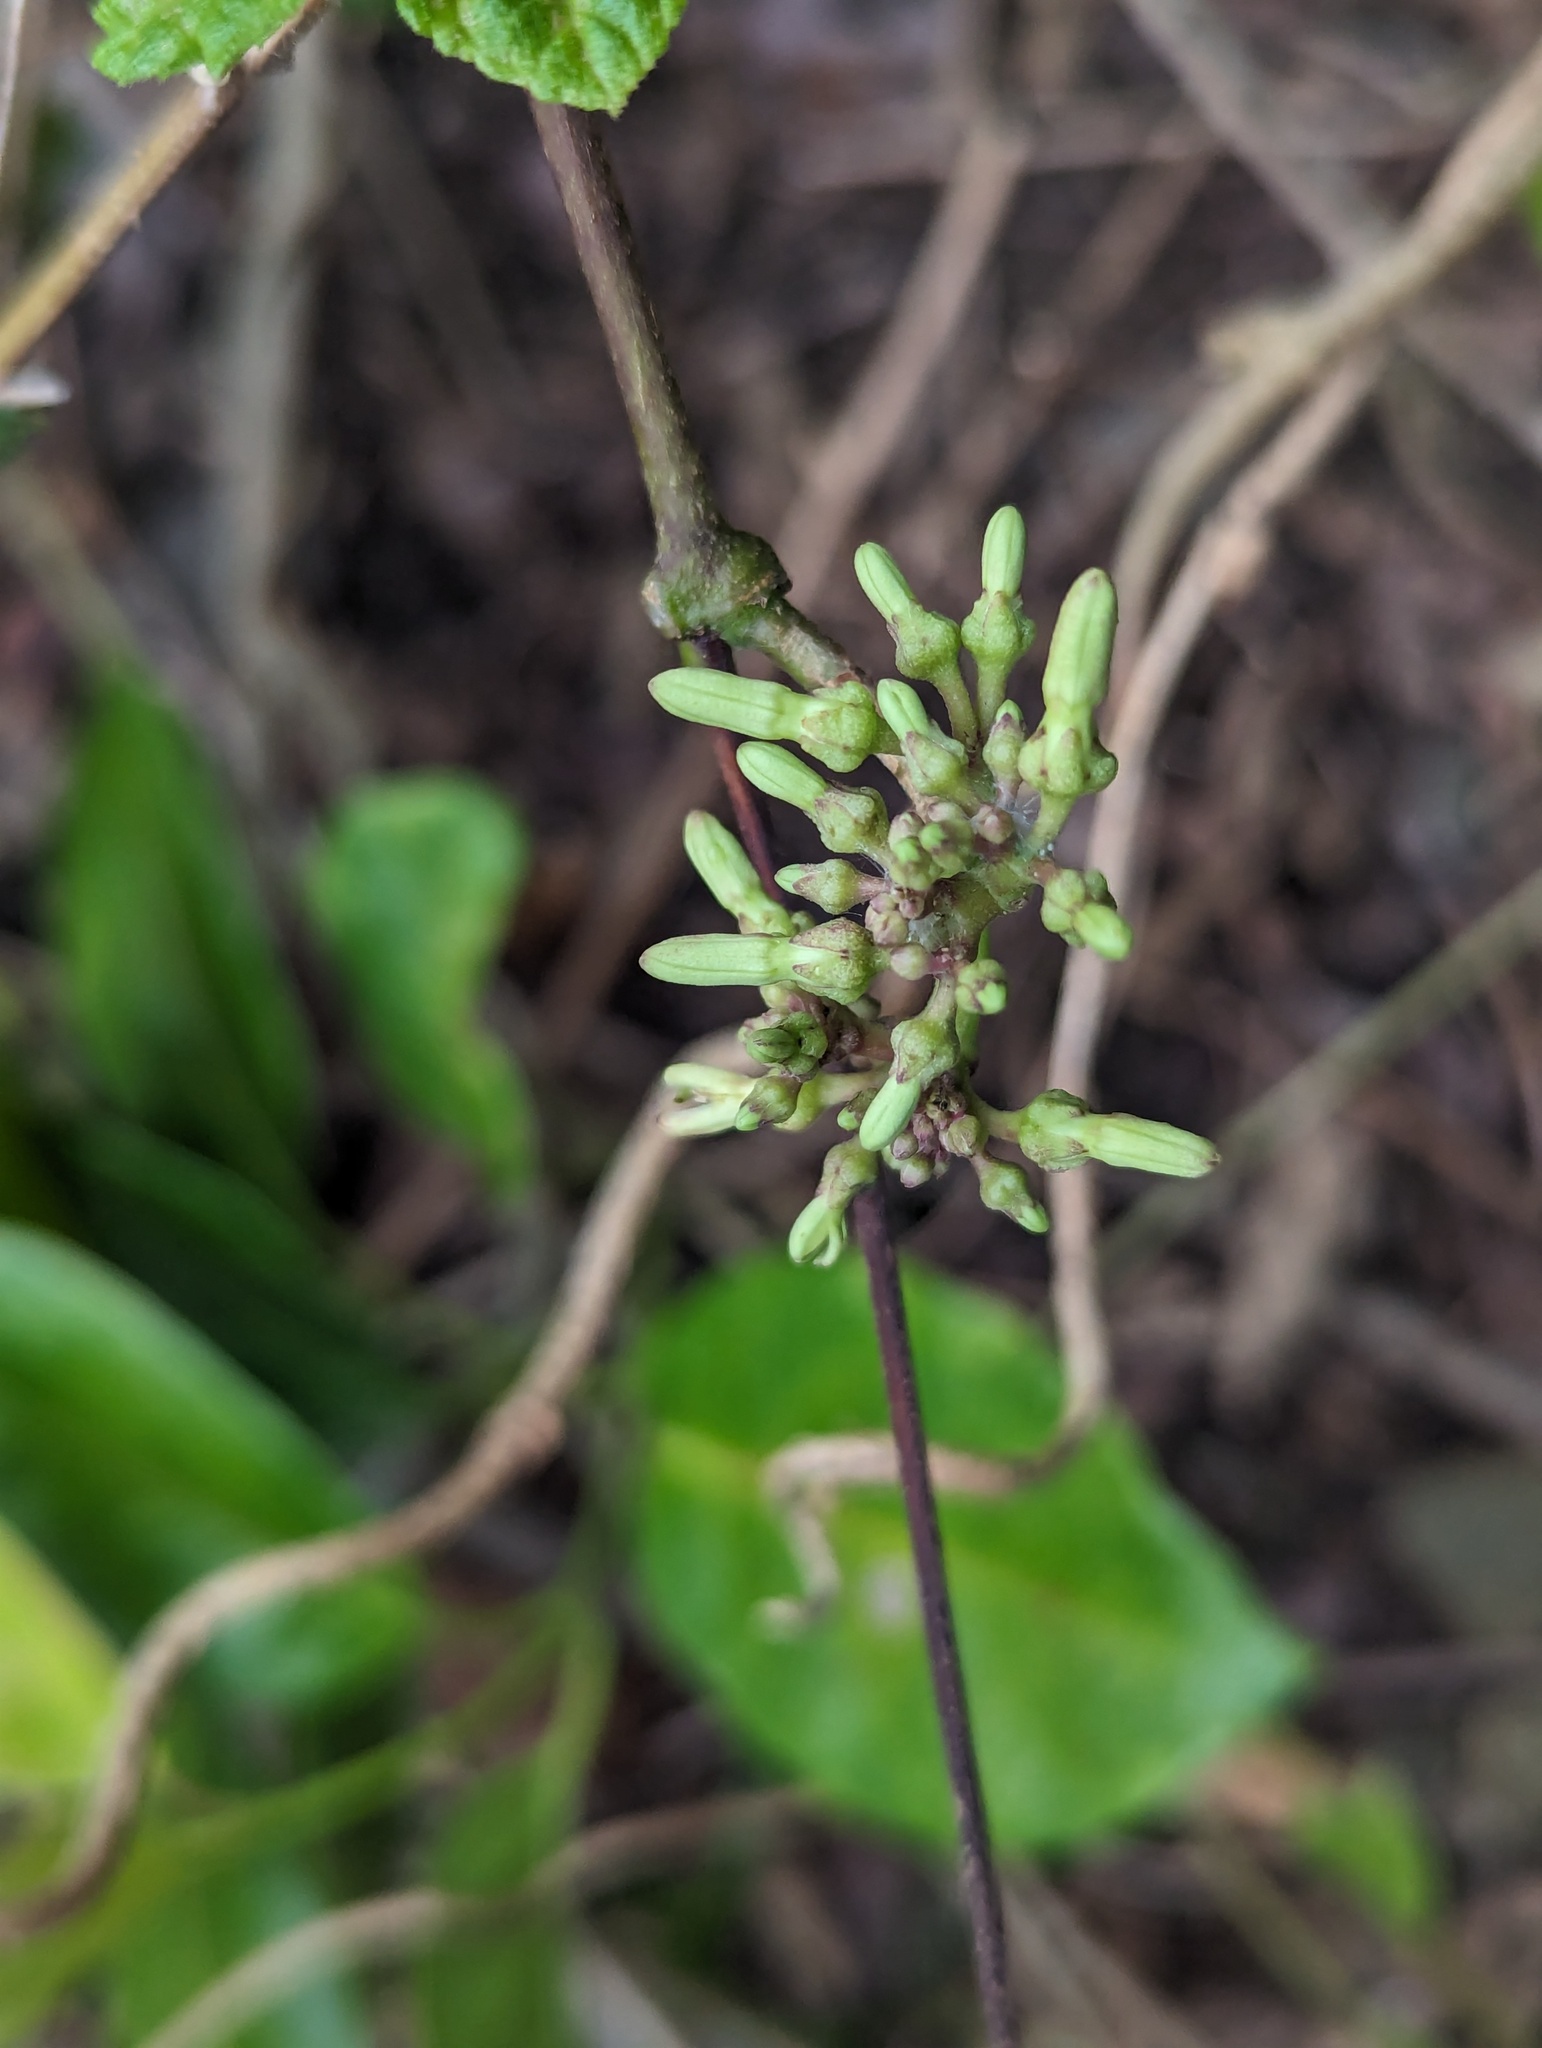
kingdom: Plantae
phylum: Tracheophyta
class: Magnoliopsida
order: Gentianales
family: Apocynaceae
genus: Parsonsia
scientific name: Parsonsia alboflavescens
